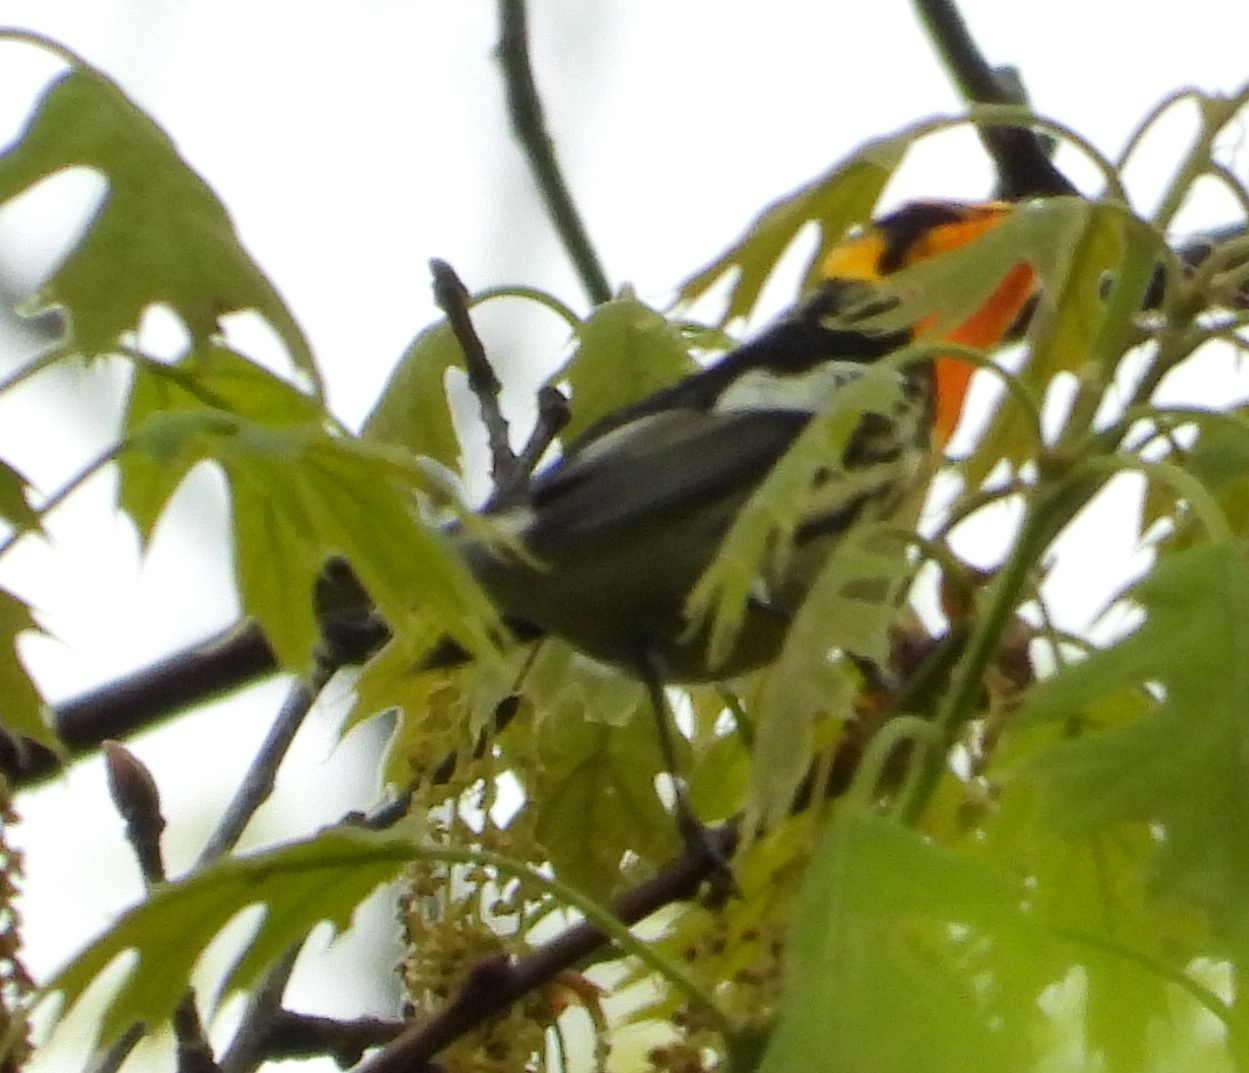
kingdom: Animalia
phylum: Chordata
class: Aves
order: Passeriformes
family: Parulidae
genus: Setophaga
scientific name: Setophaga fusca
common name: Blackburnian warbler
